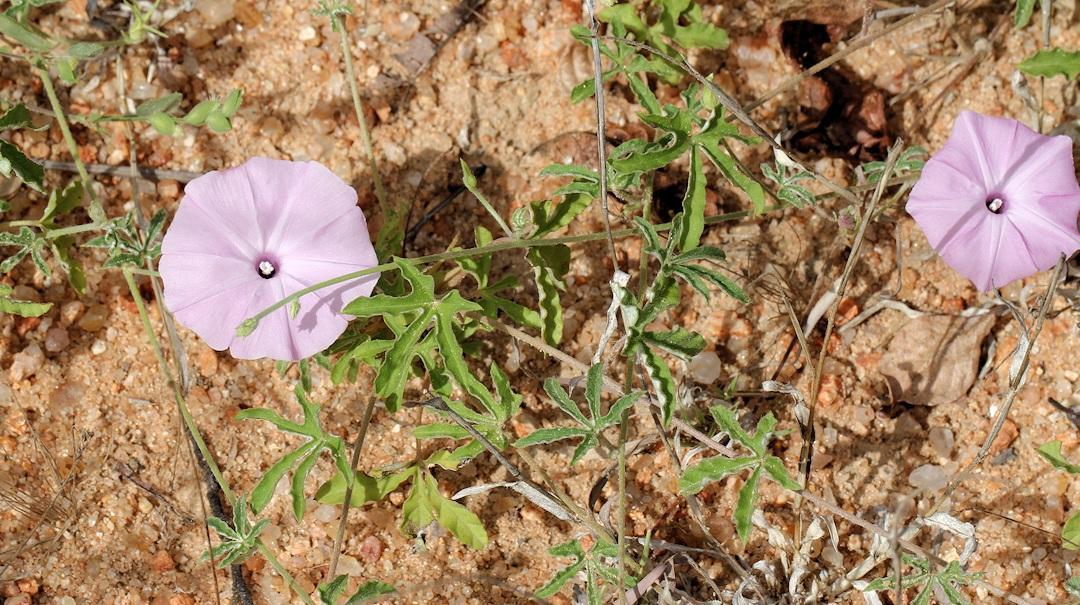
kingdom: Plantae
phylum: Tracheophyta
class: Magnoliopsida
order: Solanales
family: Convolvulaceae
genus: Ipomoea
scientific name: Ipomoea magnusiana
